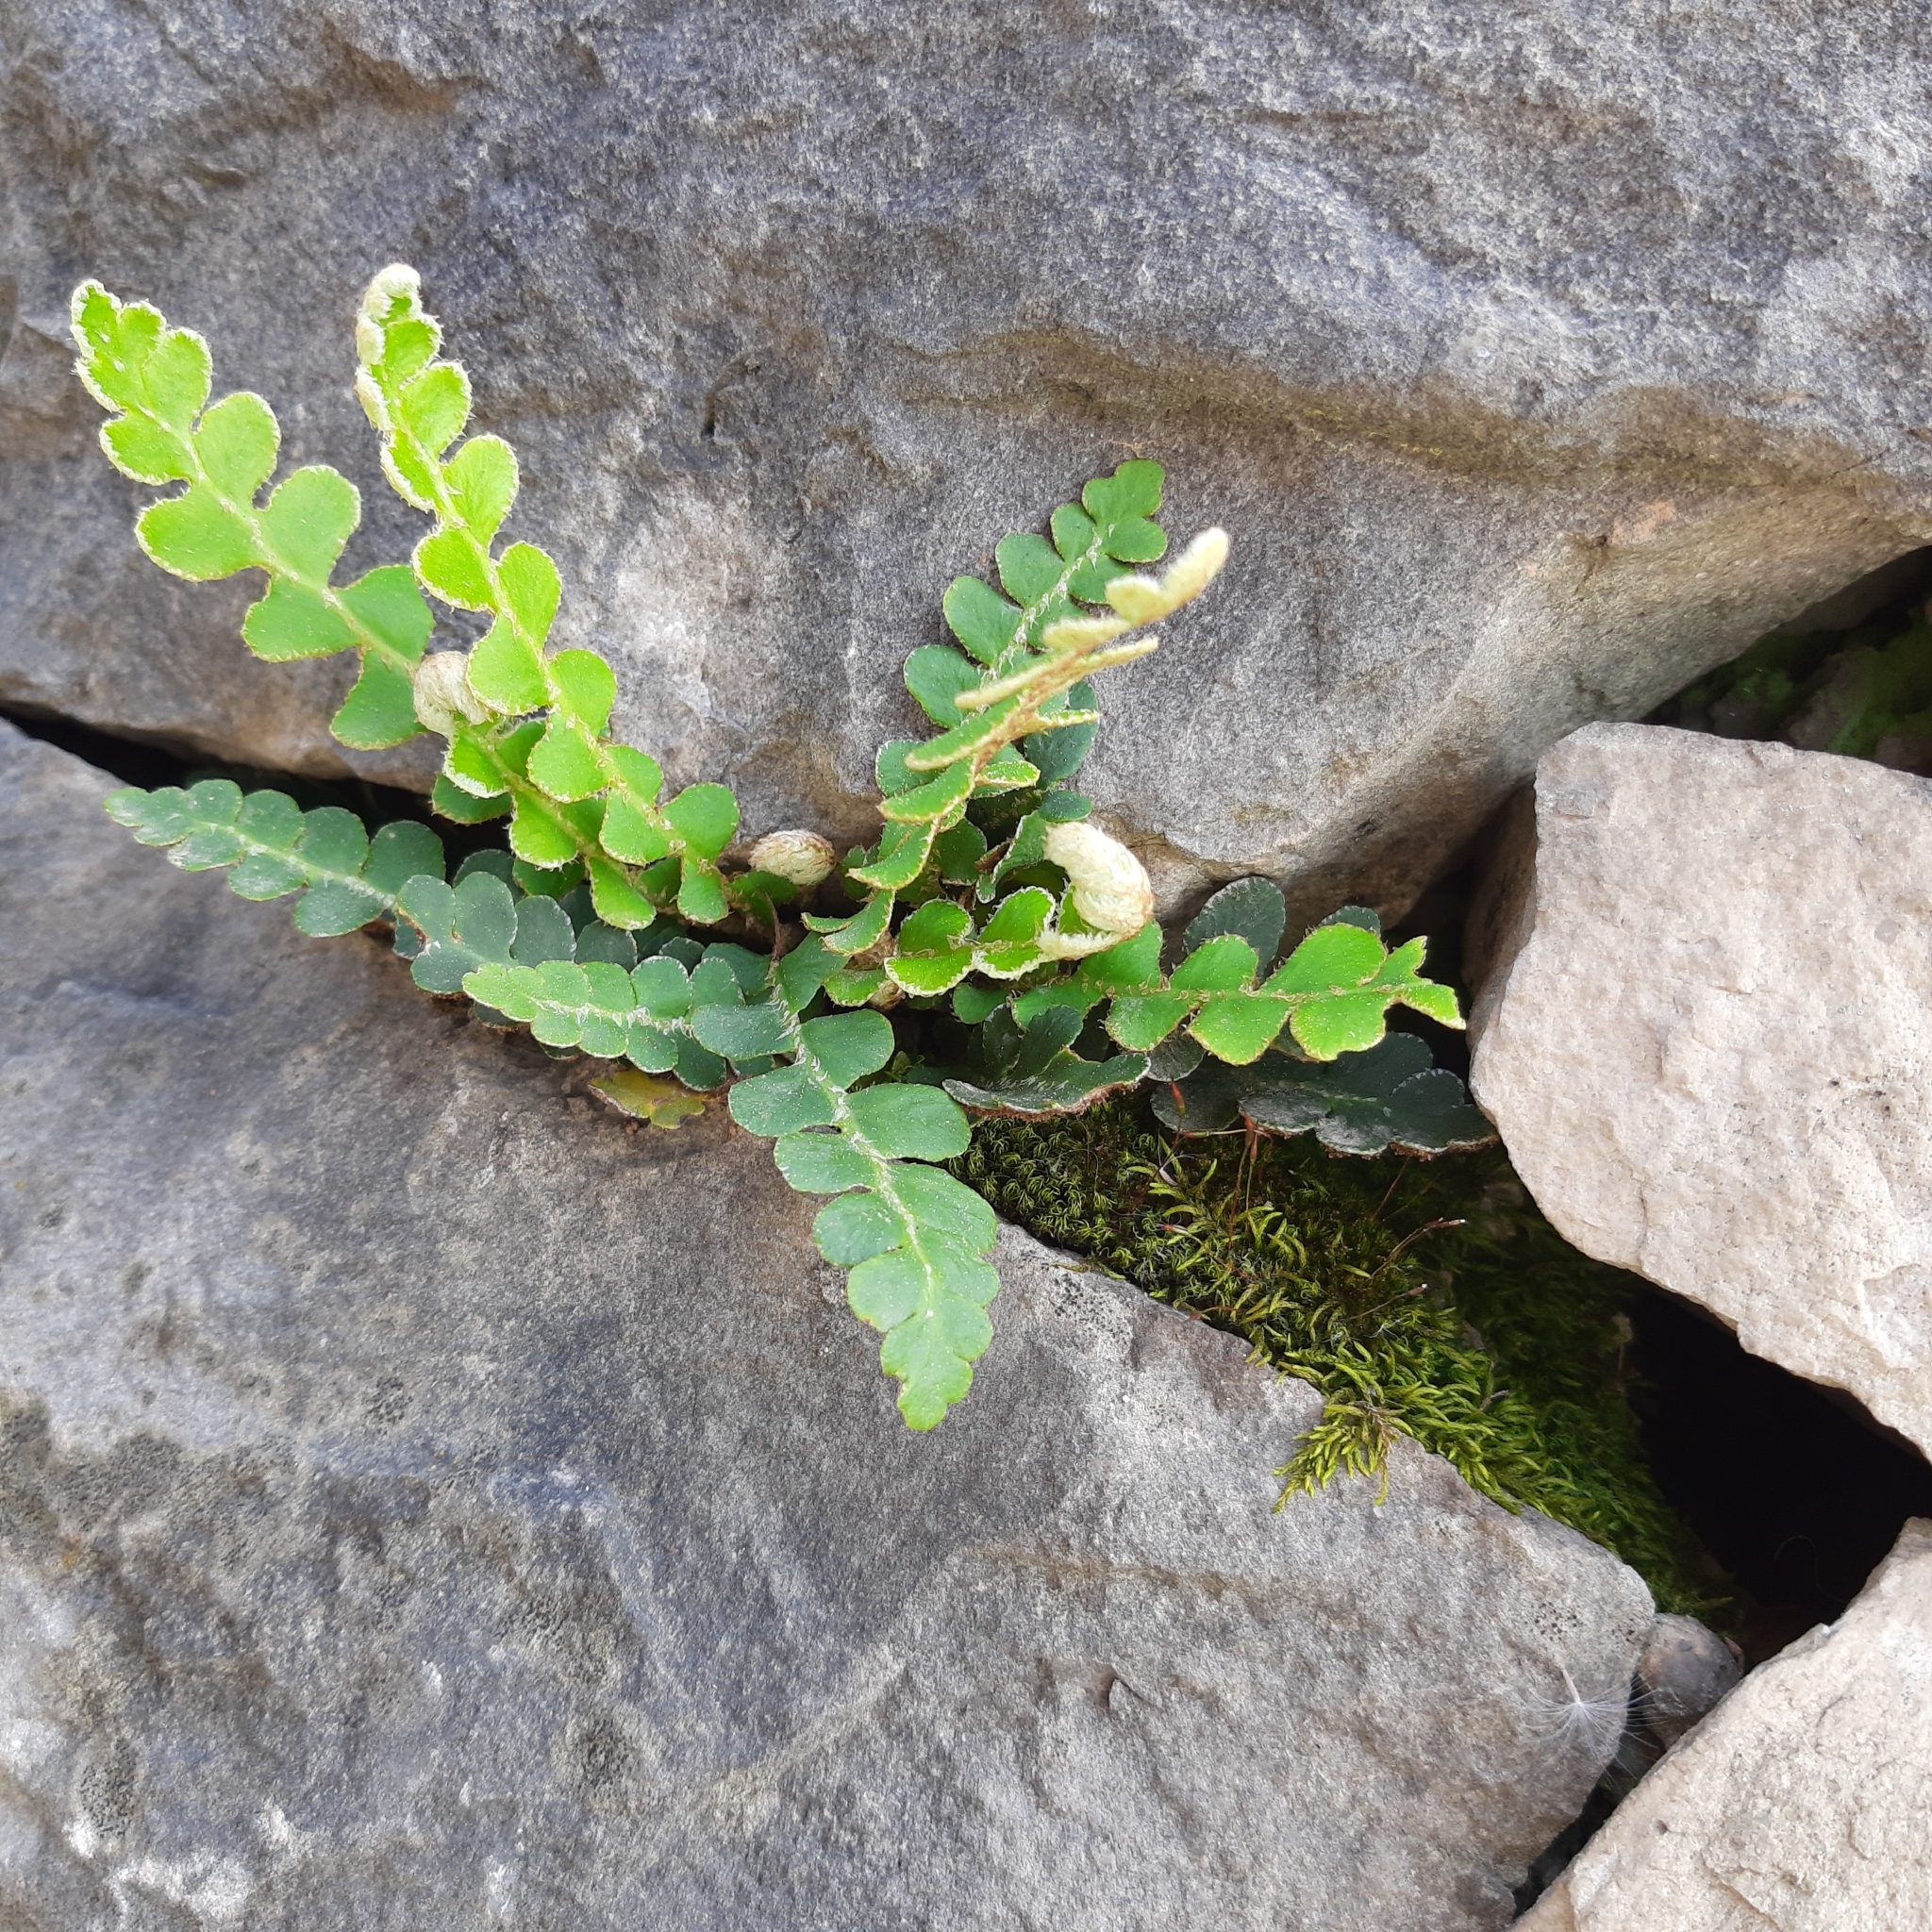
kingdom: Plantae
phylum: Tracheophyta
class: Polypodiopsida
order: Polypodiales
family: Aspleniaceae
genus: Asplenium
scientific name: Asplenium ceterach
